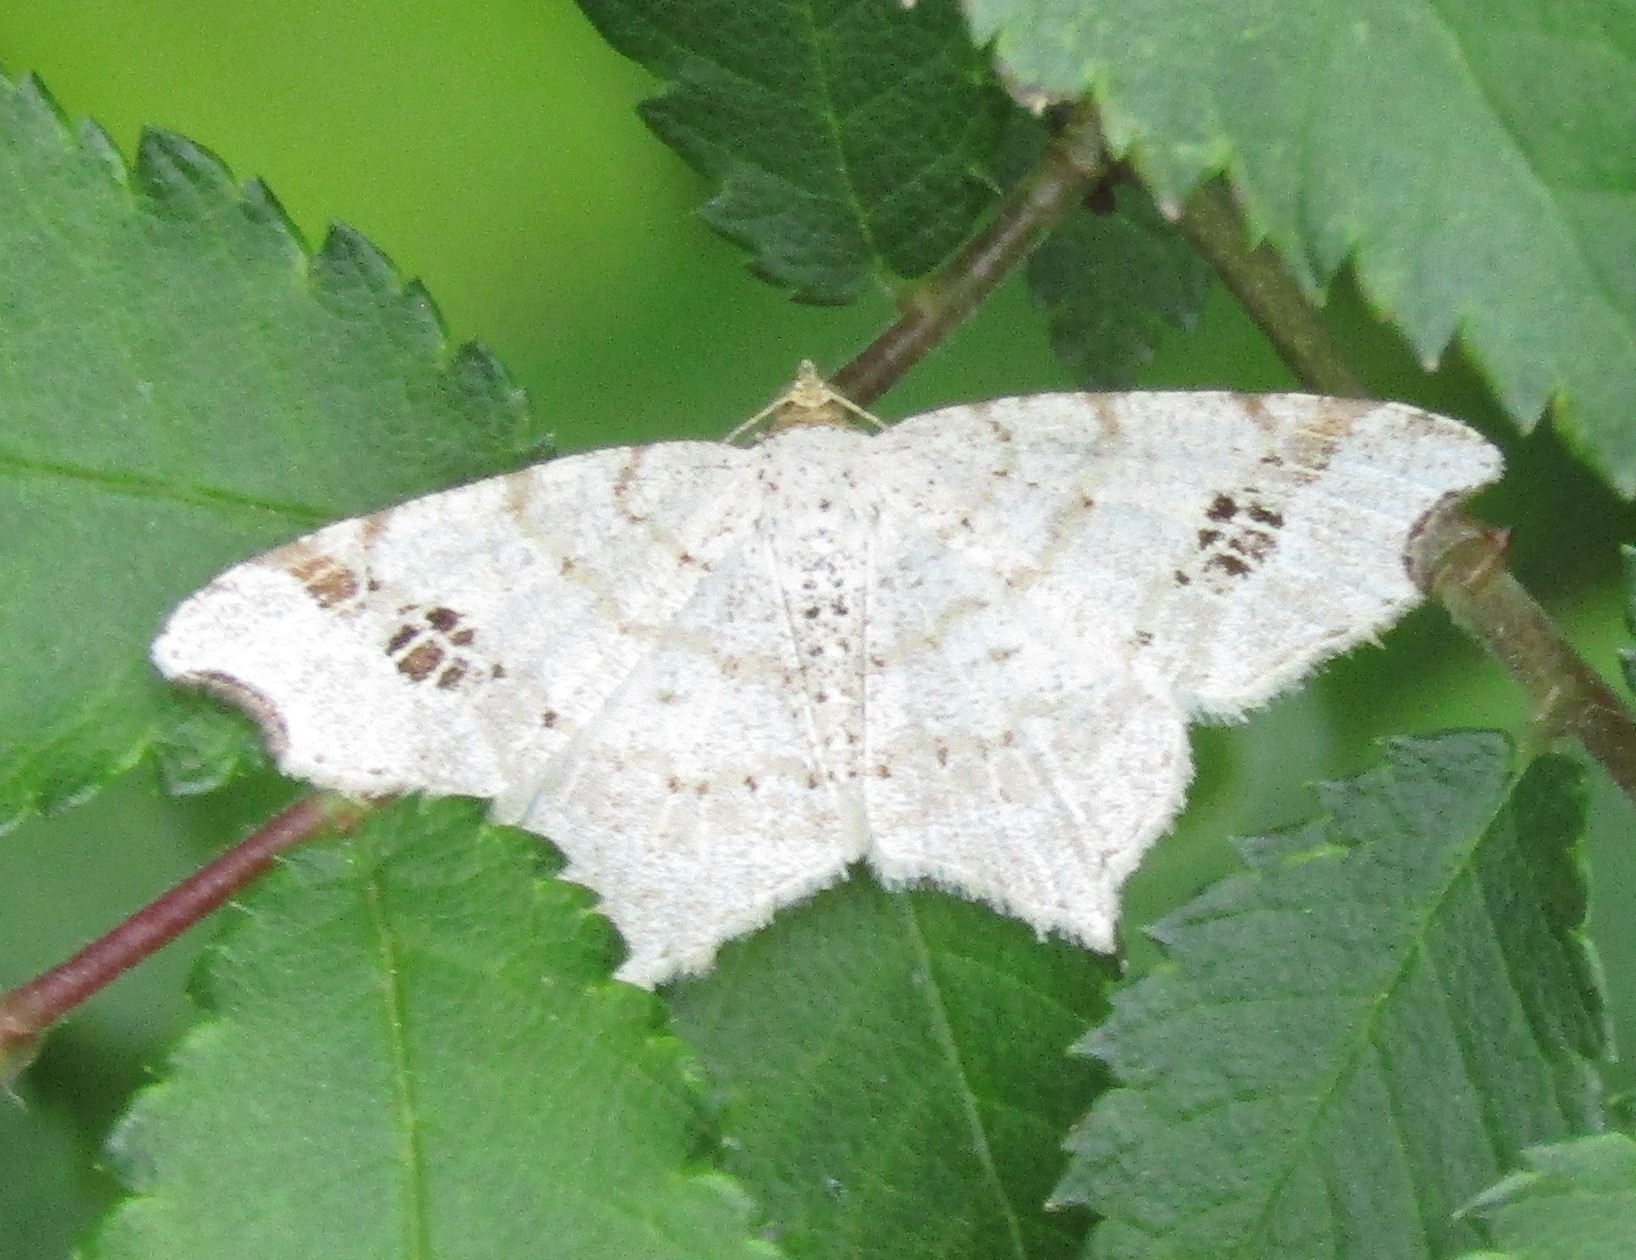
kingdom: Animalia
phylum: Arthropoda
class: Insecta
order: Lepidoptera
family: Geometridae
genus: Macaria
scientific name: Macaria promiscuata
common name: Promiscuous angle
